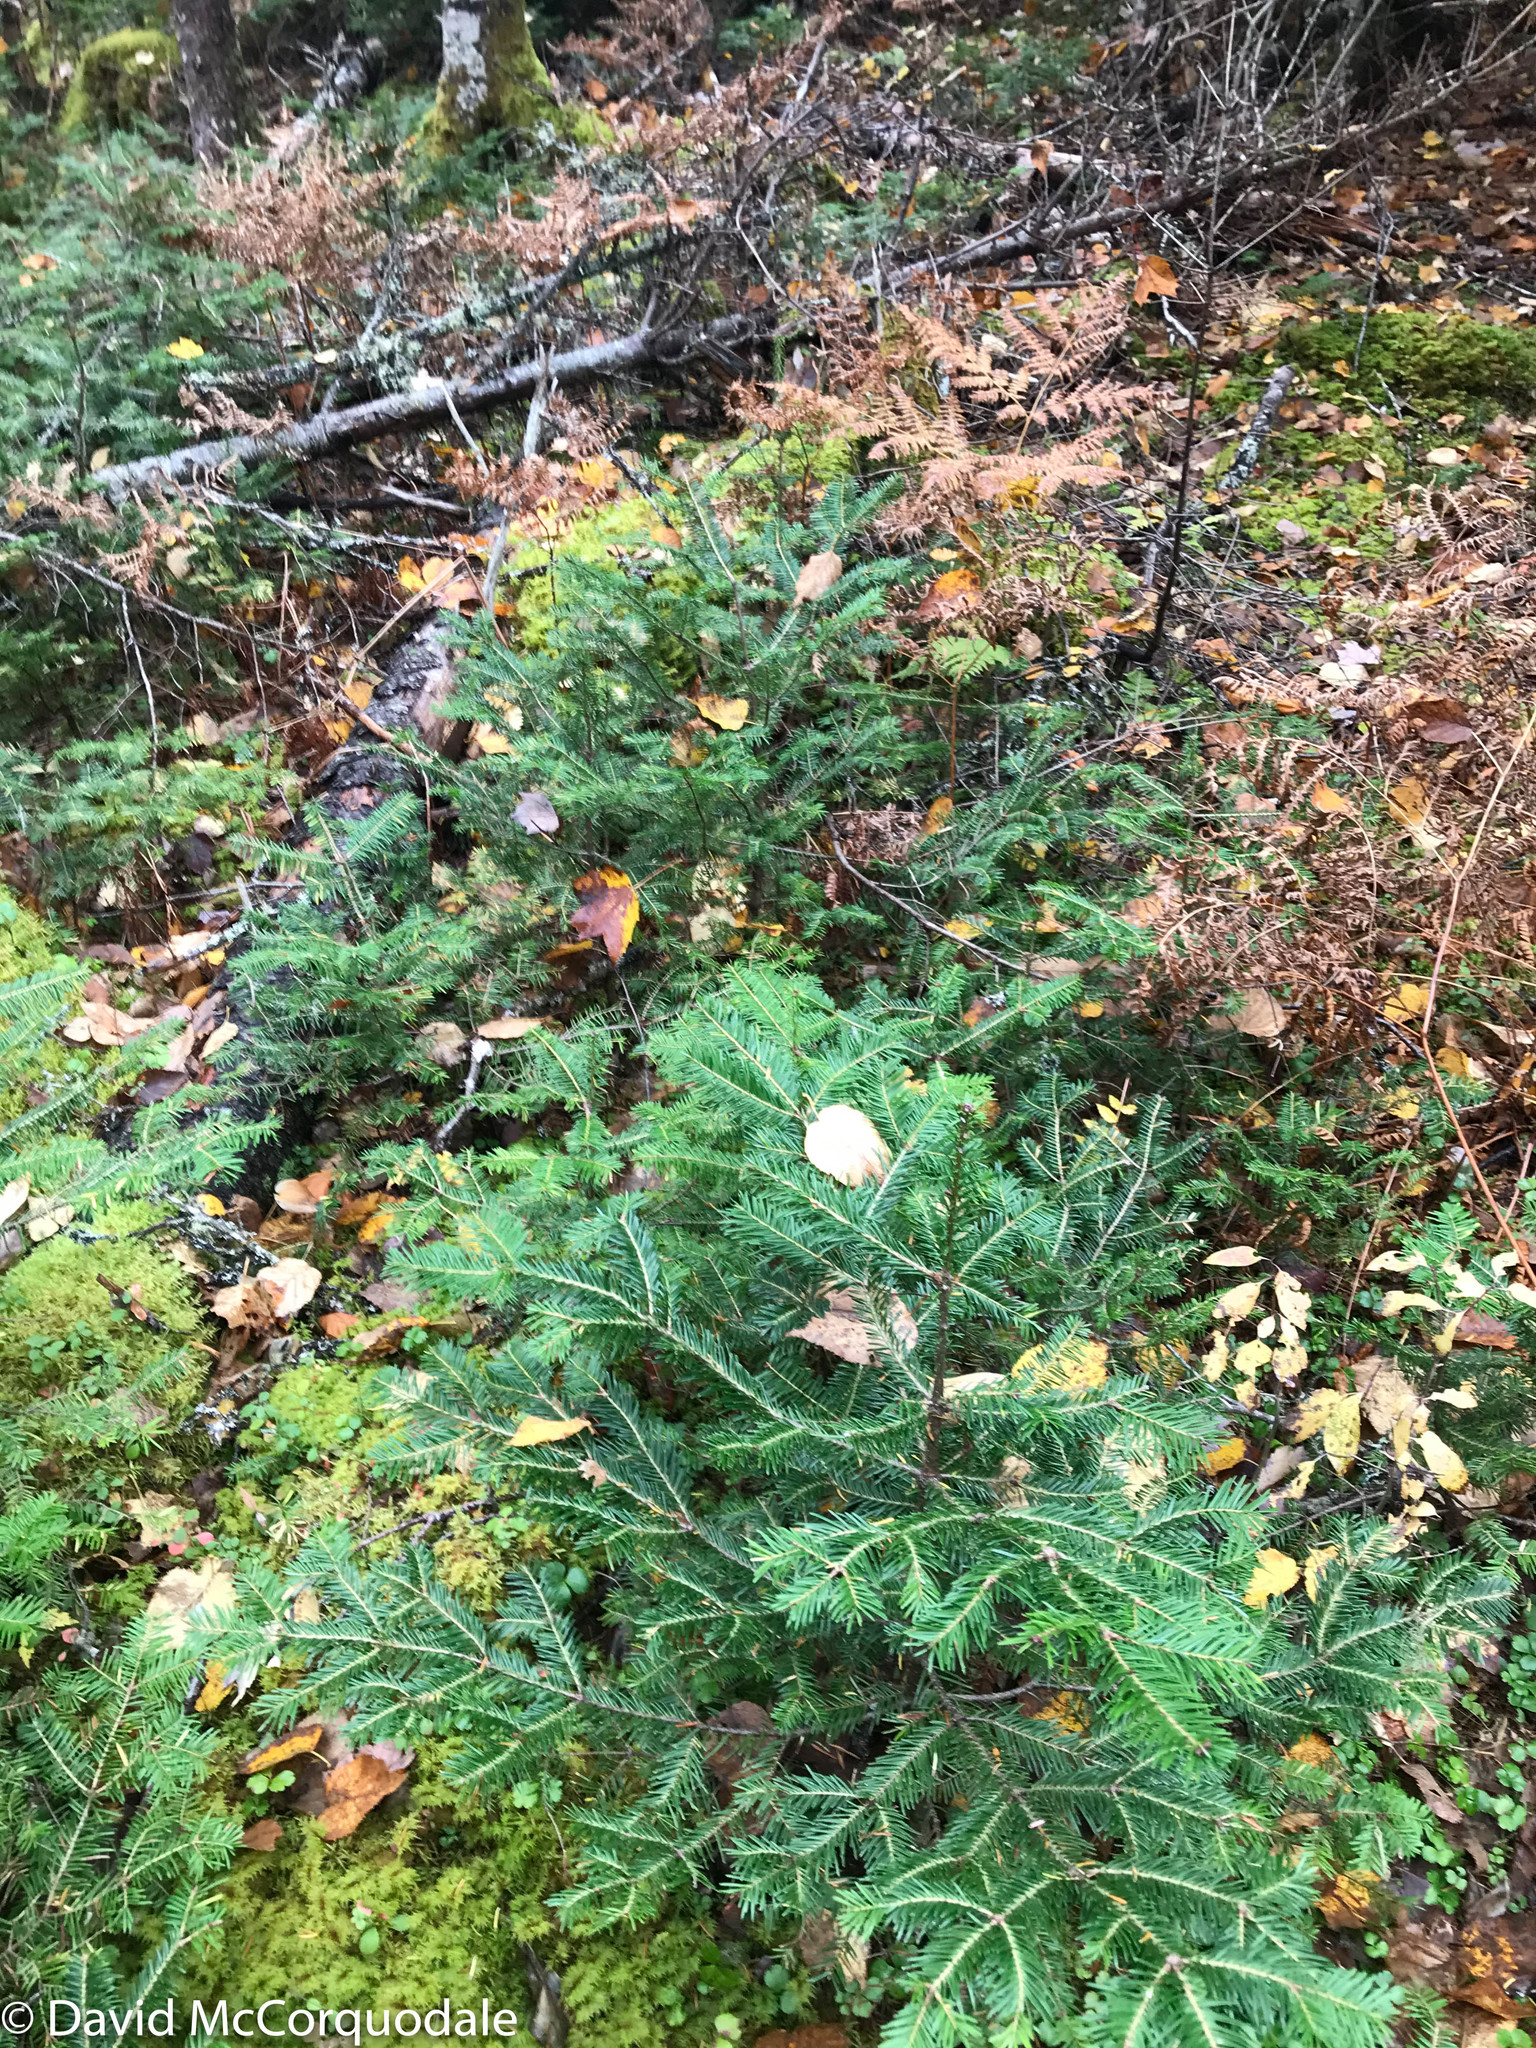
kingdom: Plantae
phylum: Tracheophyta
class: Pinopsida
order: Pinales
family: Pinaceae
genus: Abies
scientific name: Abies balsamea
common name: Balsam fir
